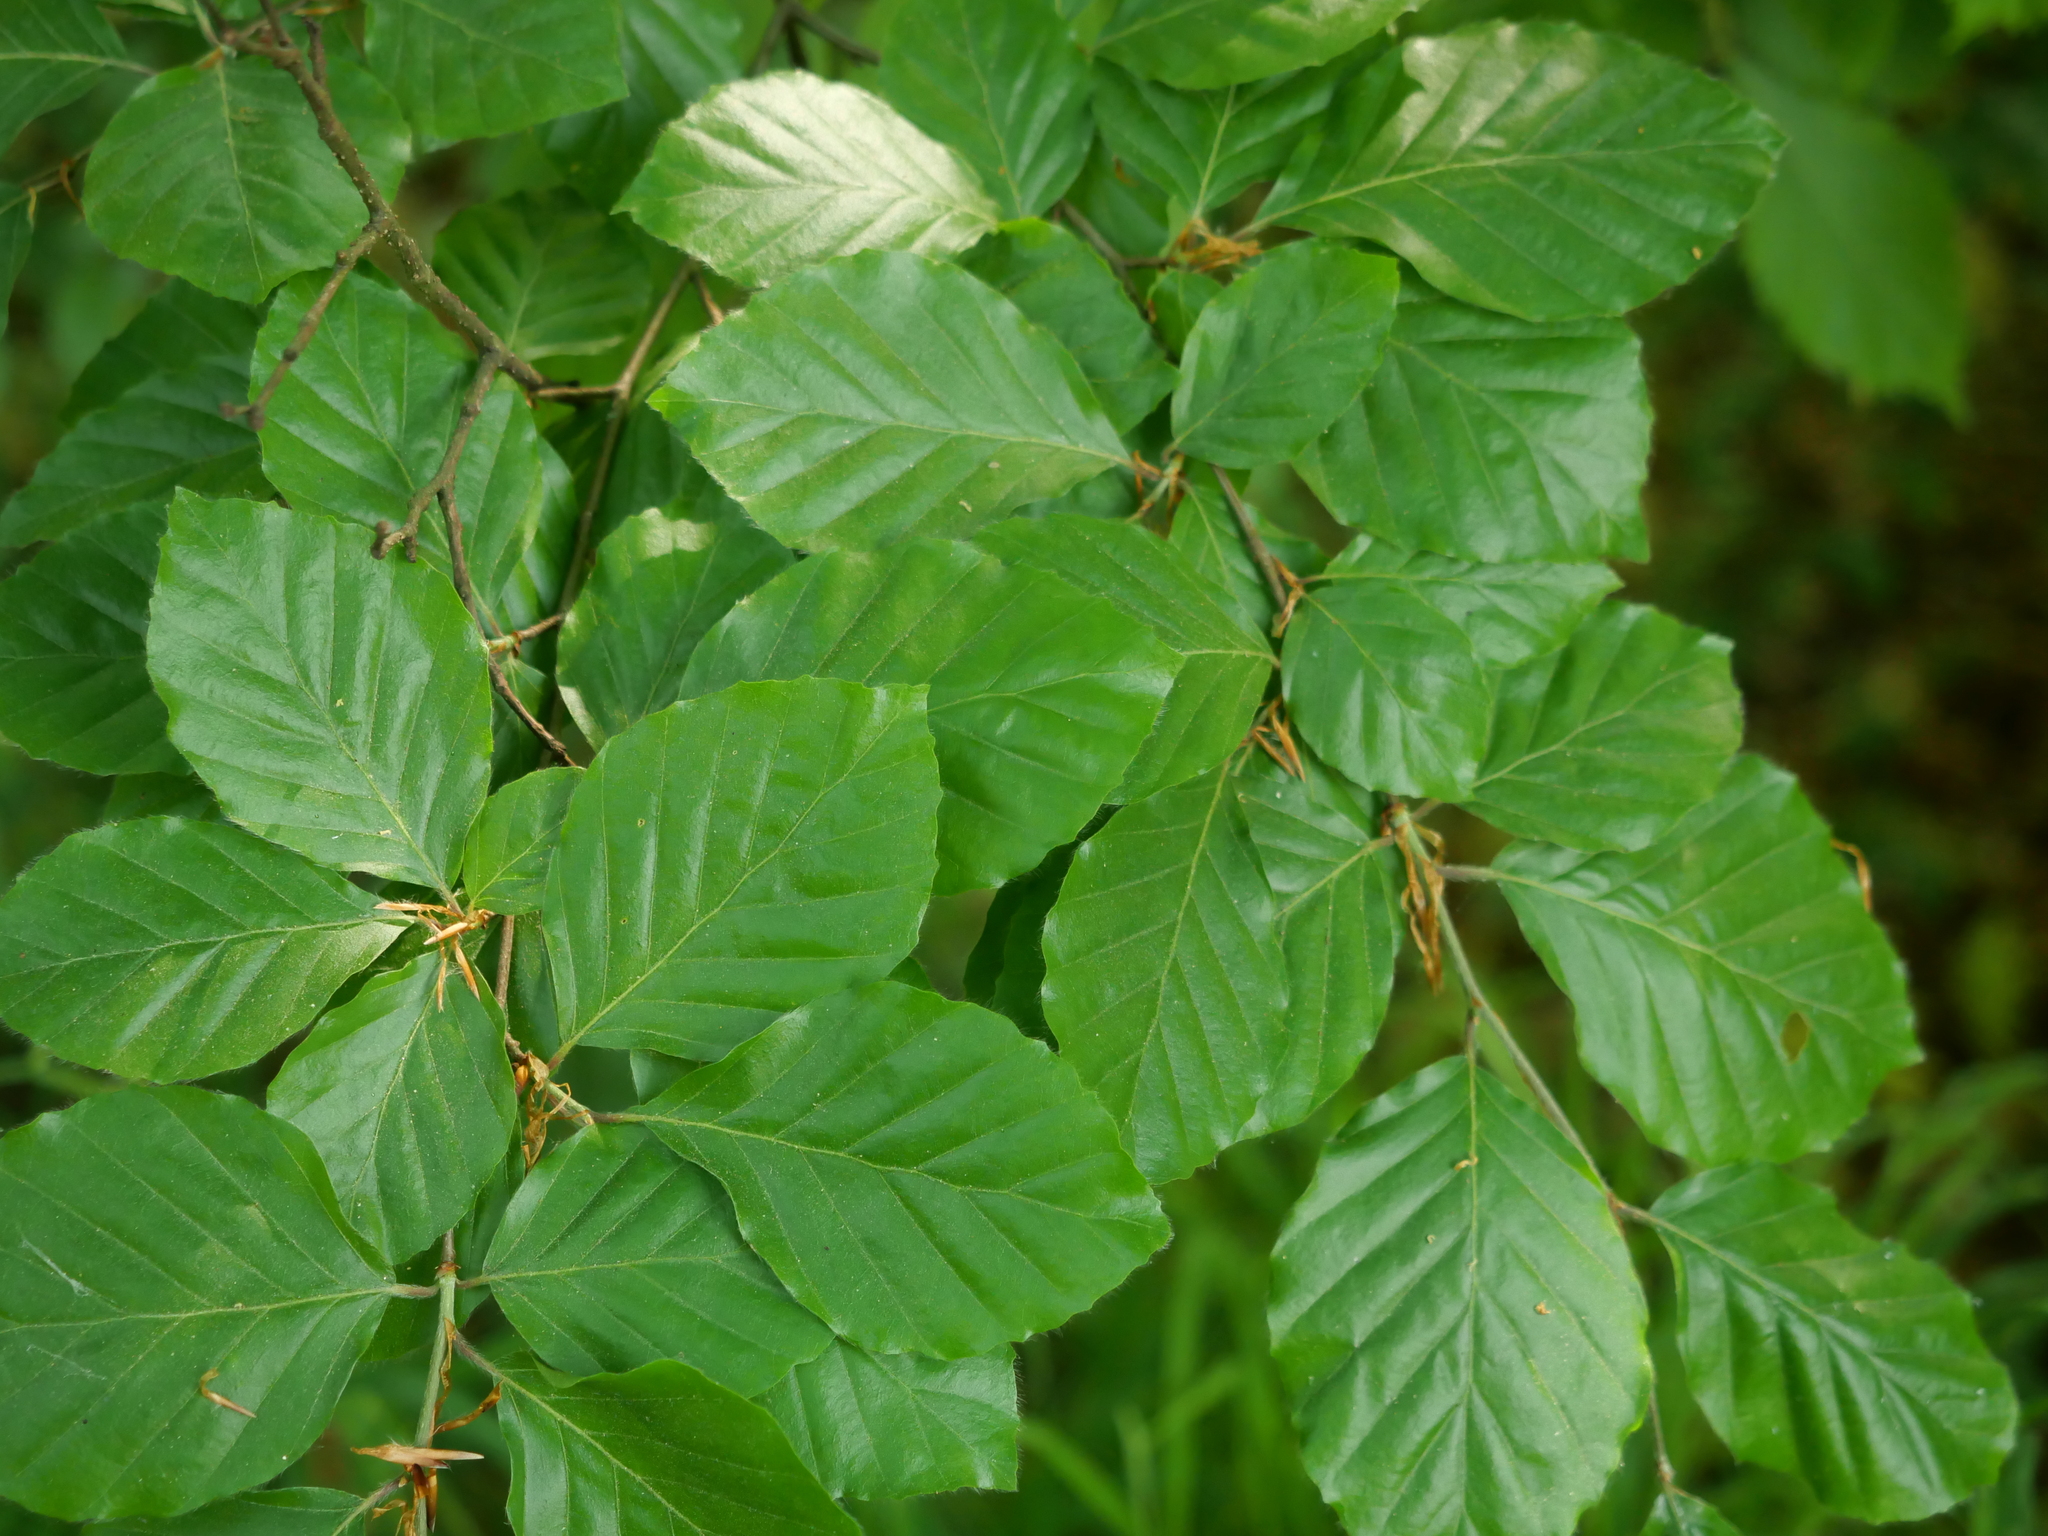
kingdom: Plantae
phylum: Tracheophyta
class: Magnoliopsida
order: Fagales
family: Fagaceae
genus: Fagus
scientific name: Fagus sylvatica
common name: Beech
